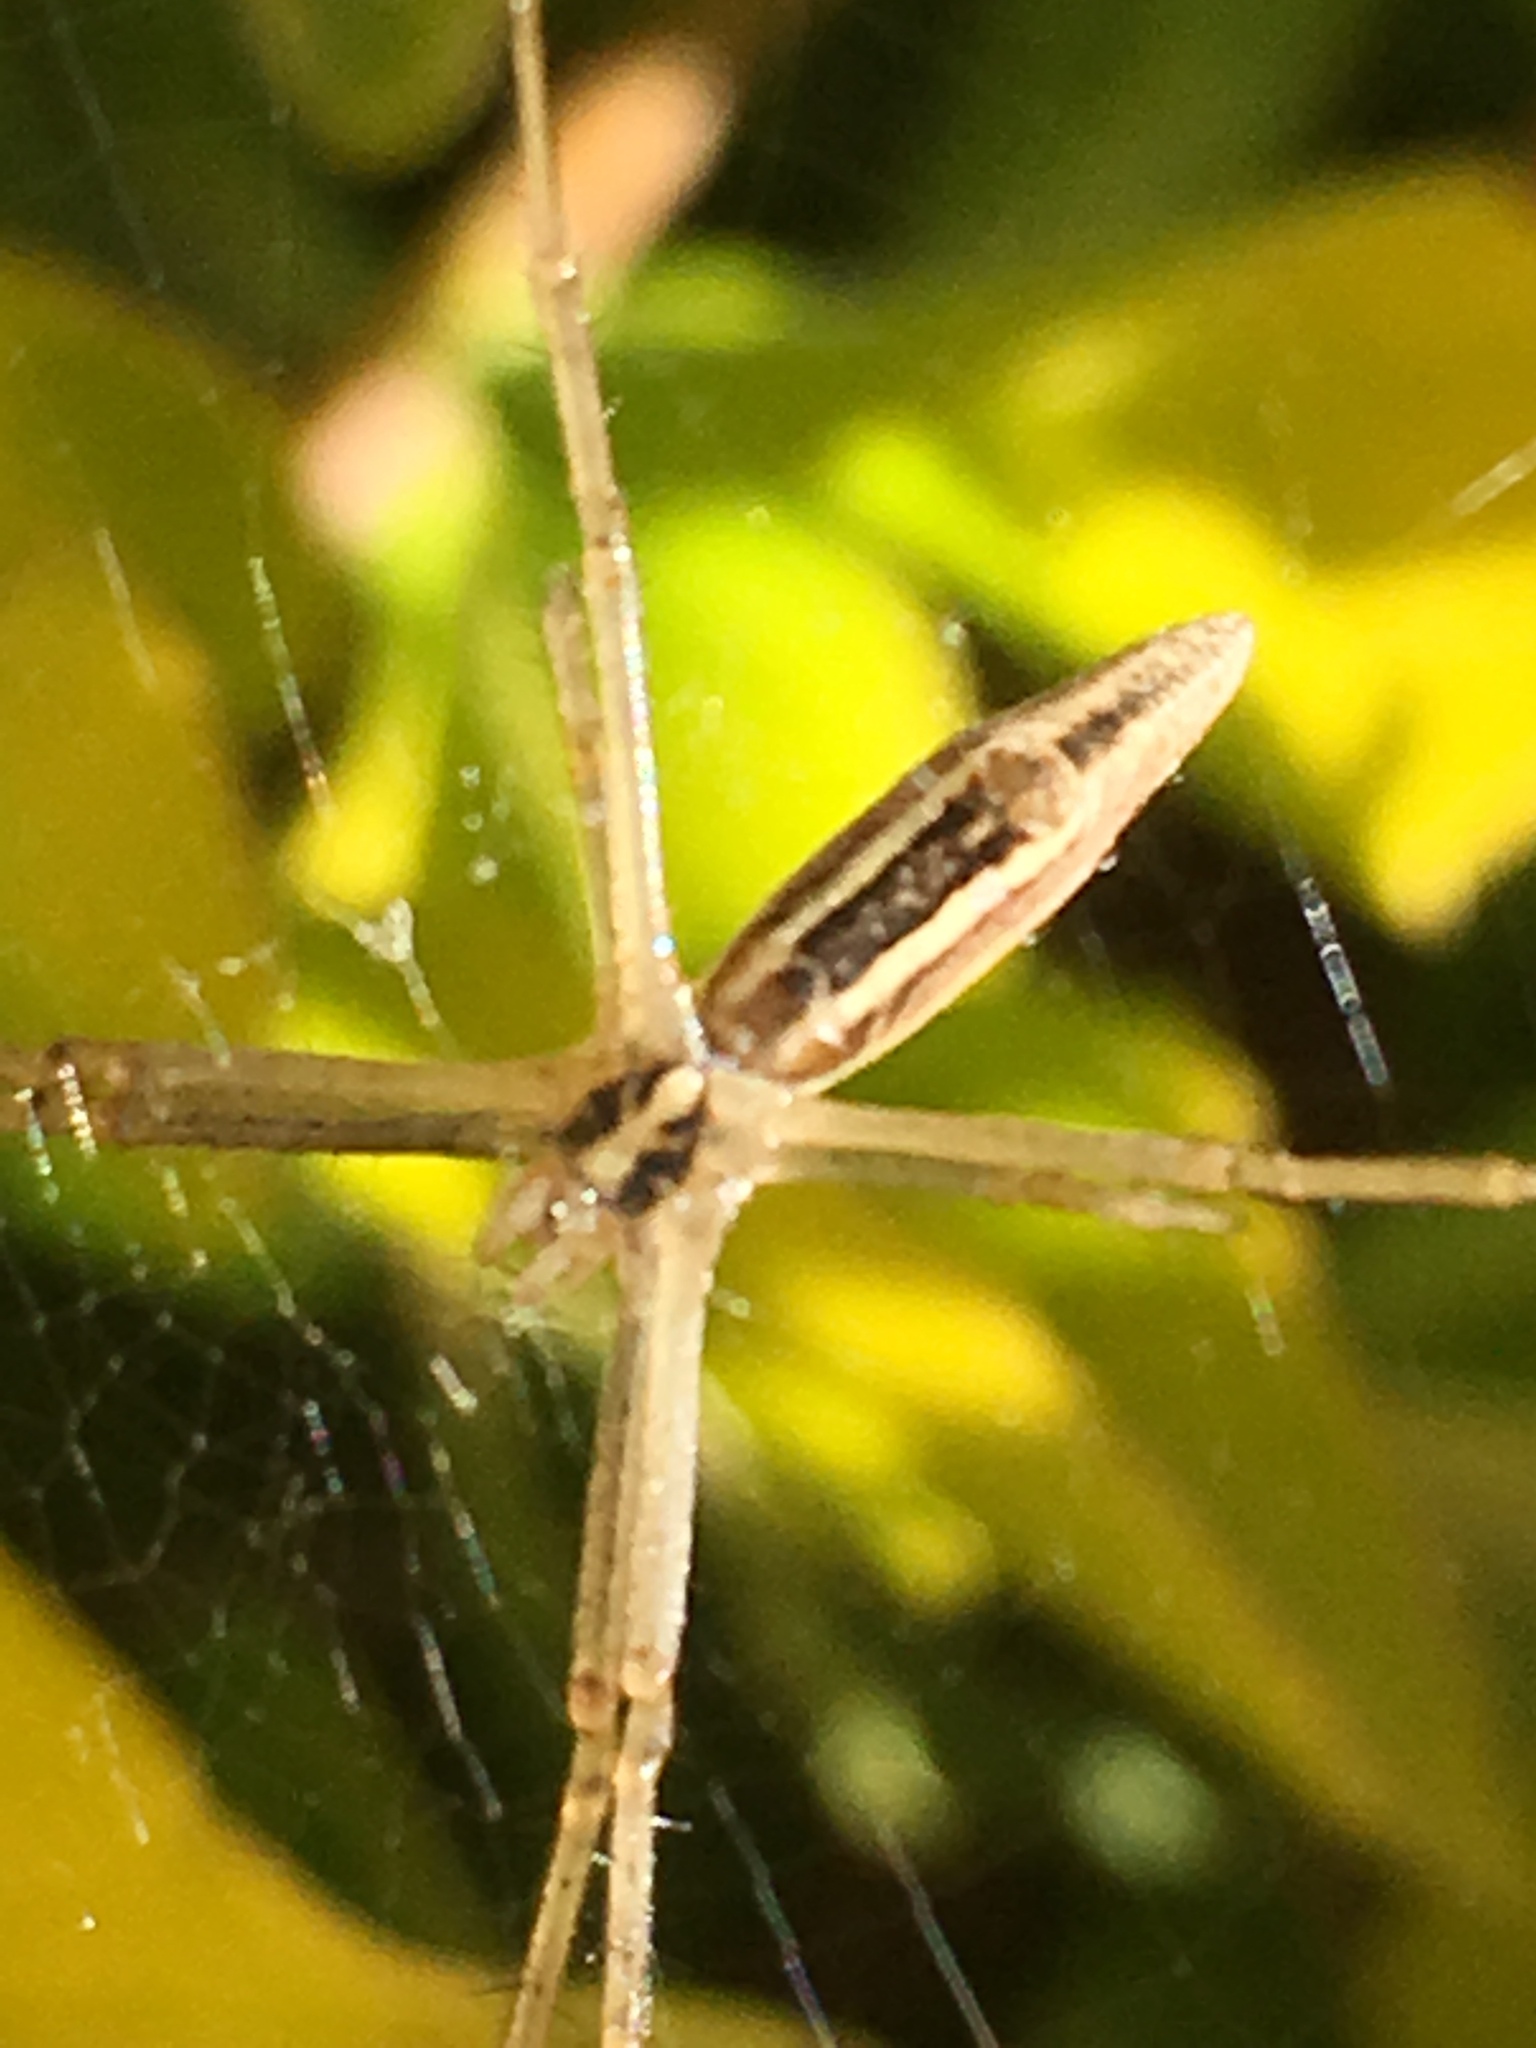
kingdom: Animalia
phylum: Arthropoda
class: Arachnida
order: Araneae
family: Araneidae
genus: Argiope
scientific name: Argiope protensa
